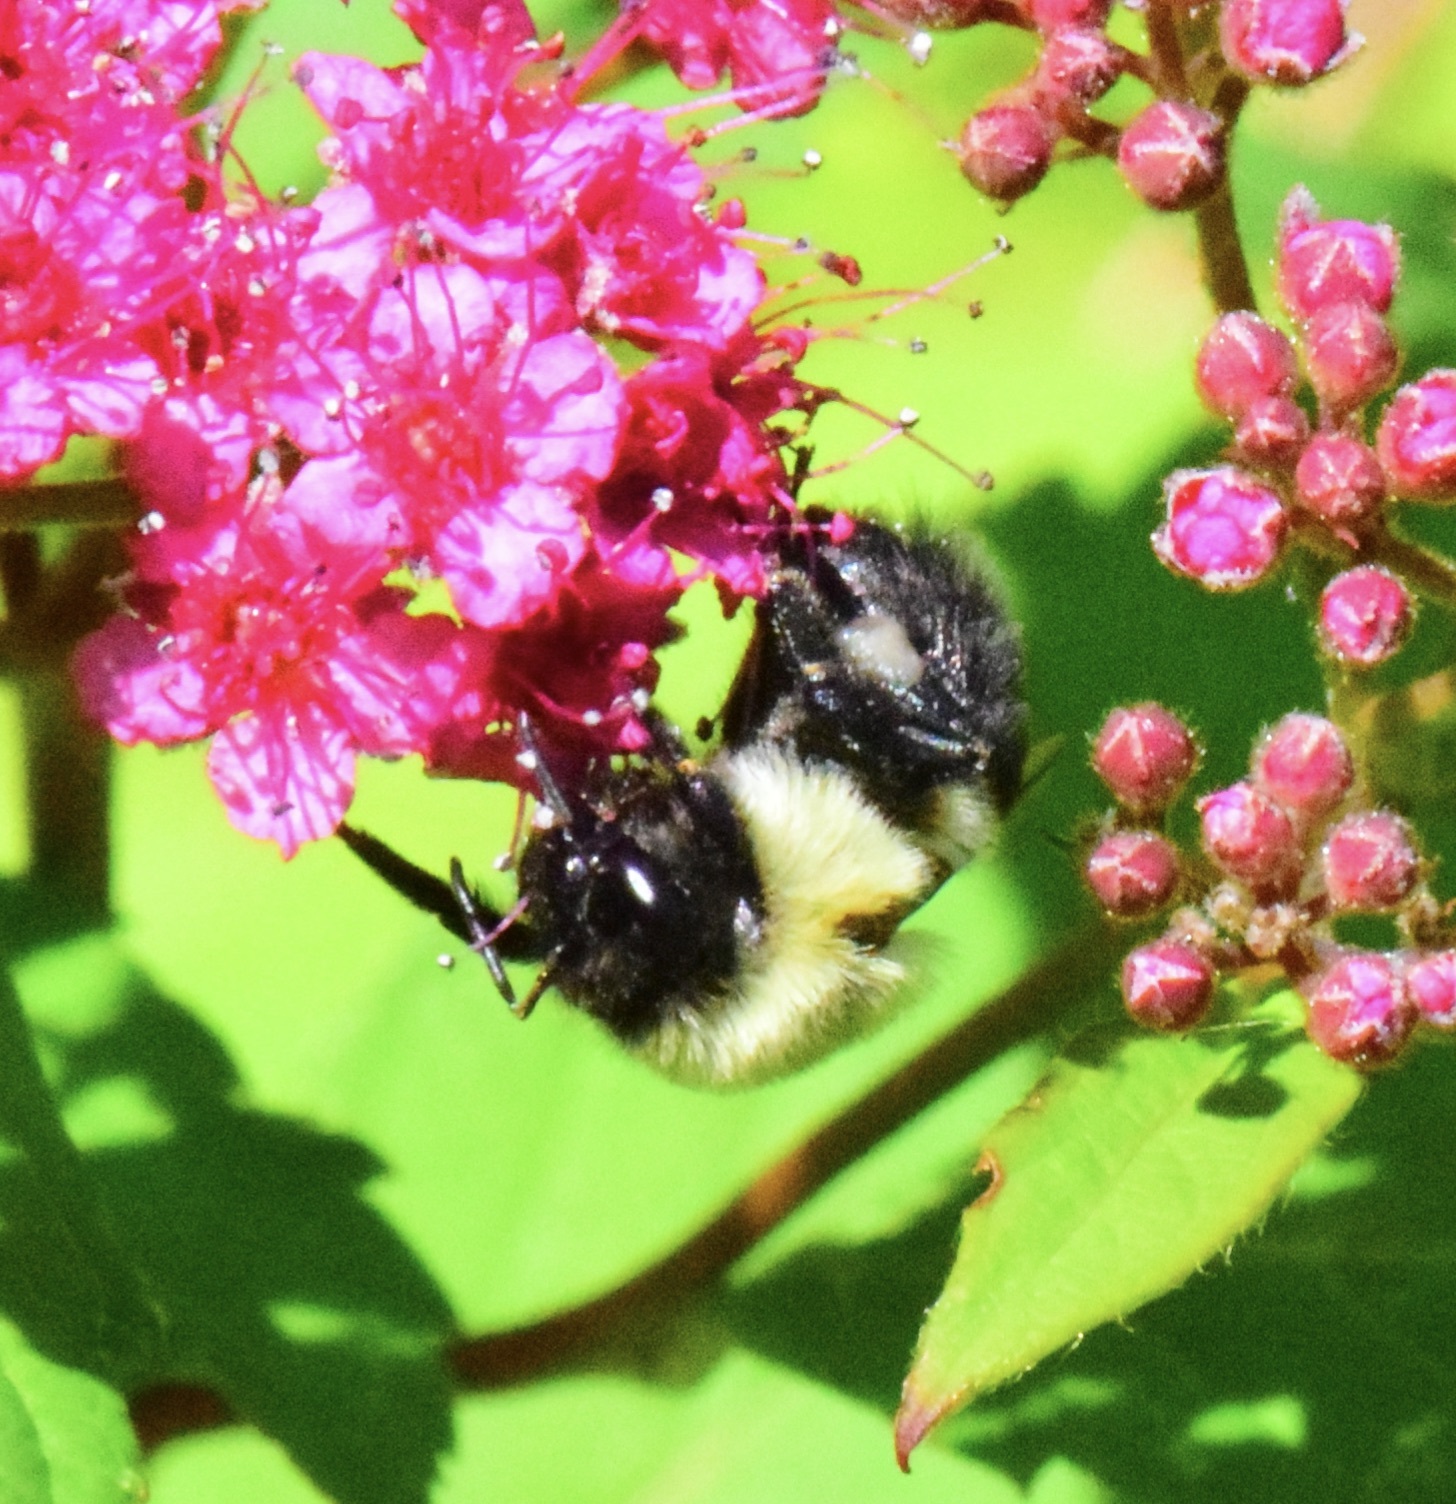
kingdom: Animalia
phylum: Arthropoda
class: Insecta
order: Hymenoptera
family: Apidae
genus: Bombus
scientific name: Bombus impatiens
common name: Common eastern bumble bee
